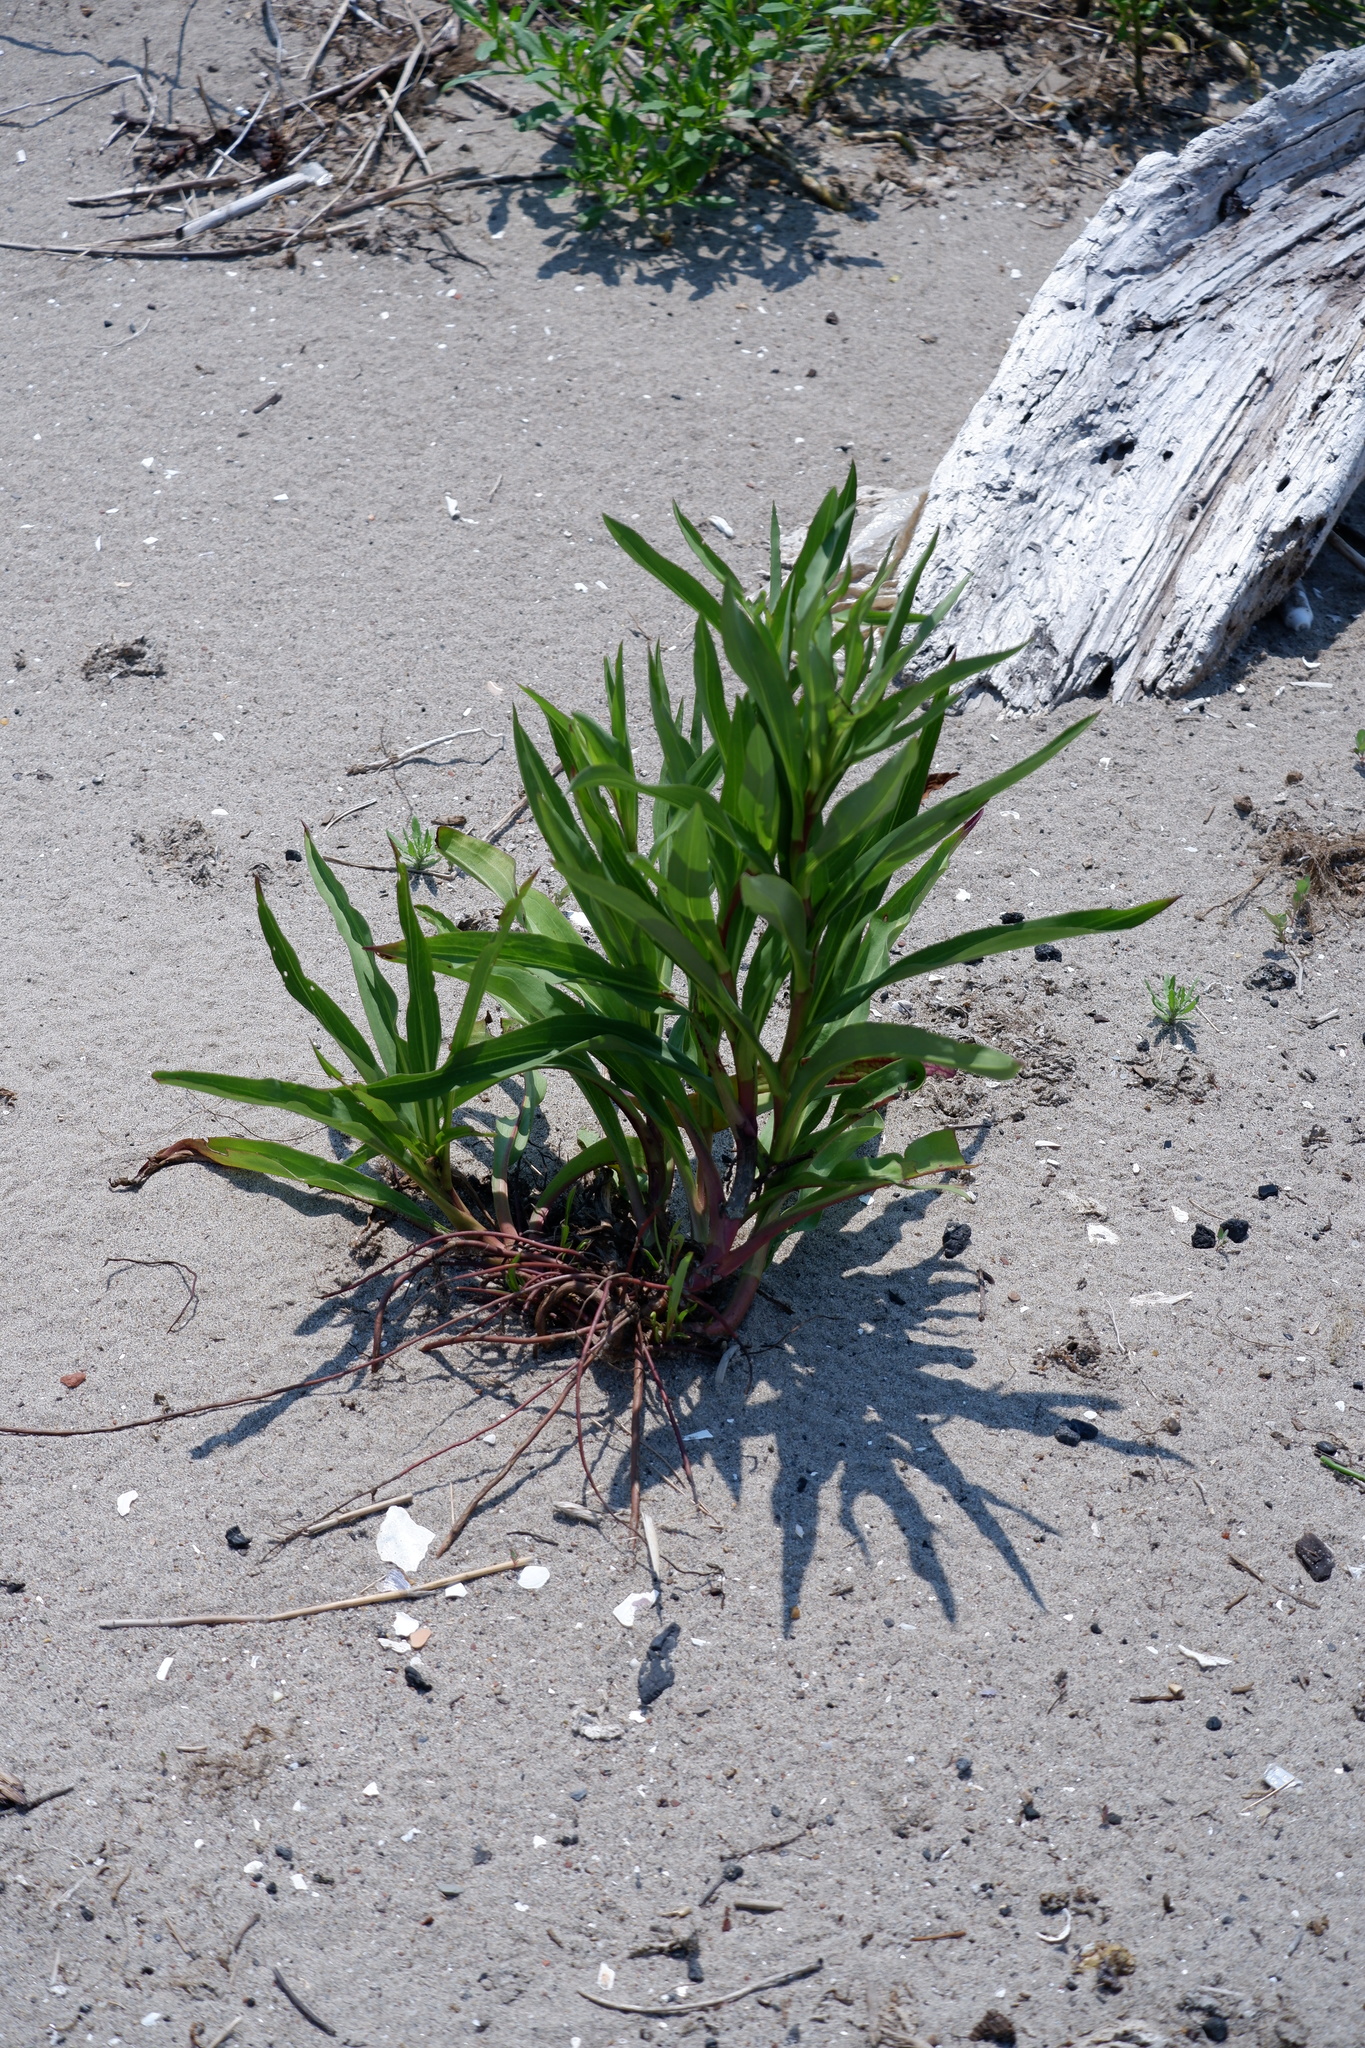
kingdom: Plantae
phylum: Tracheophyta
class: Magnoliopsida
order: Asterales
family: Asteraceae
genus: Solidago
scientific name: Solidago sempervirens
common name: Salt-marsh goldenrod
